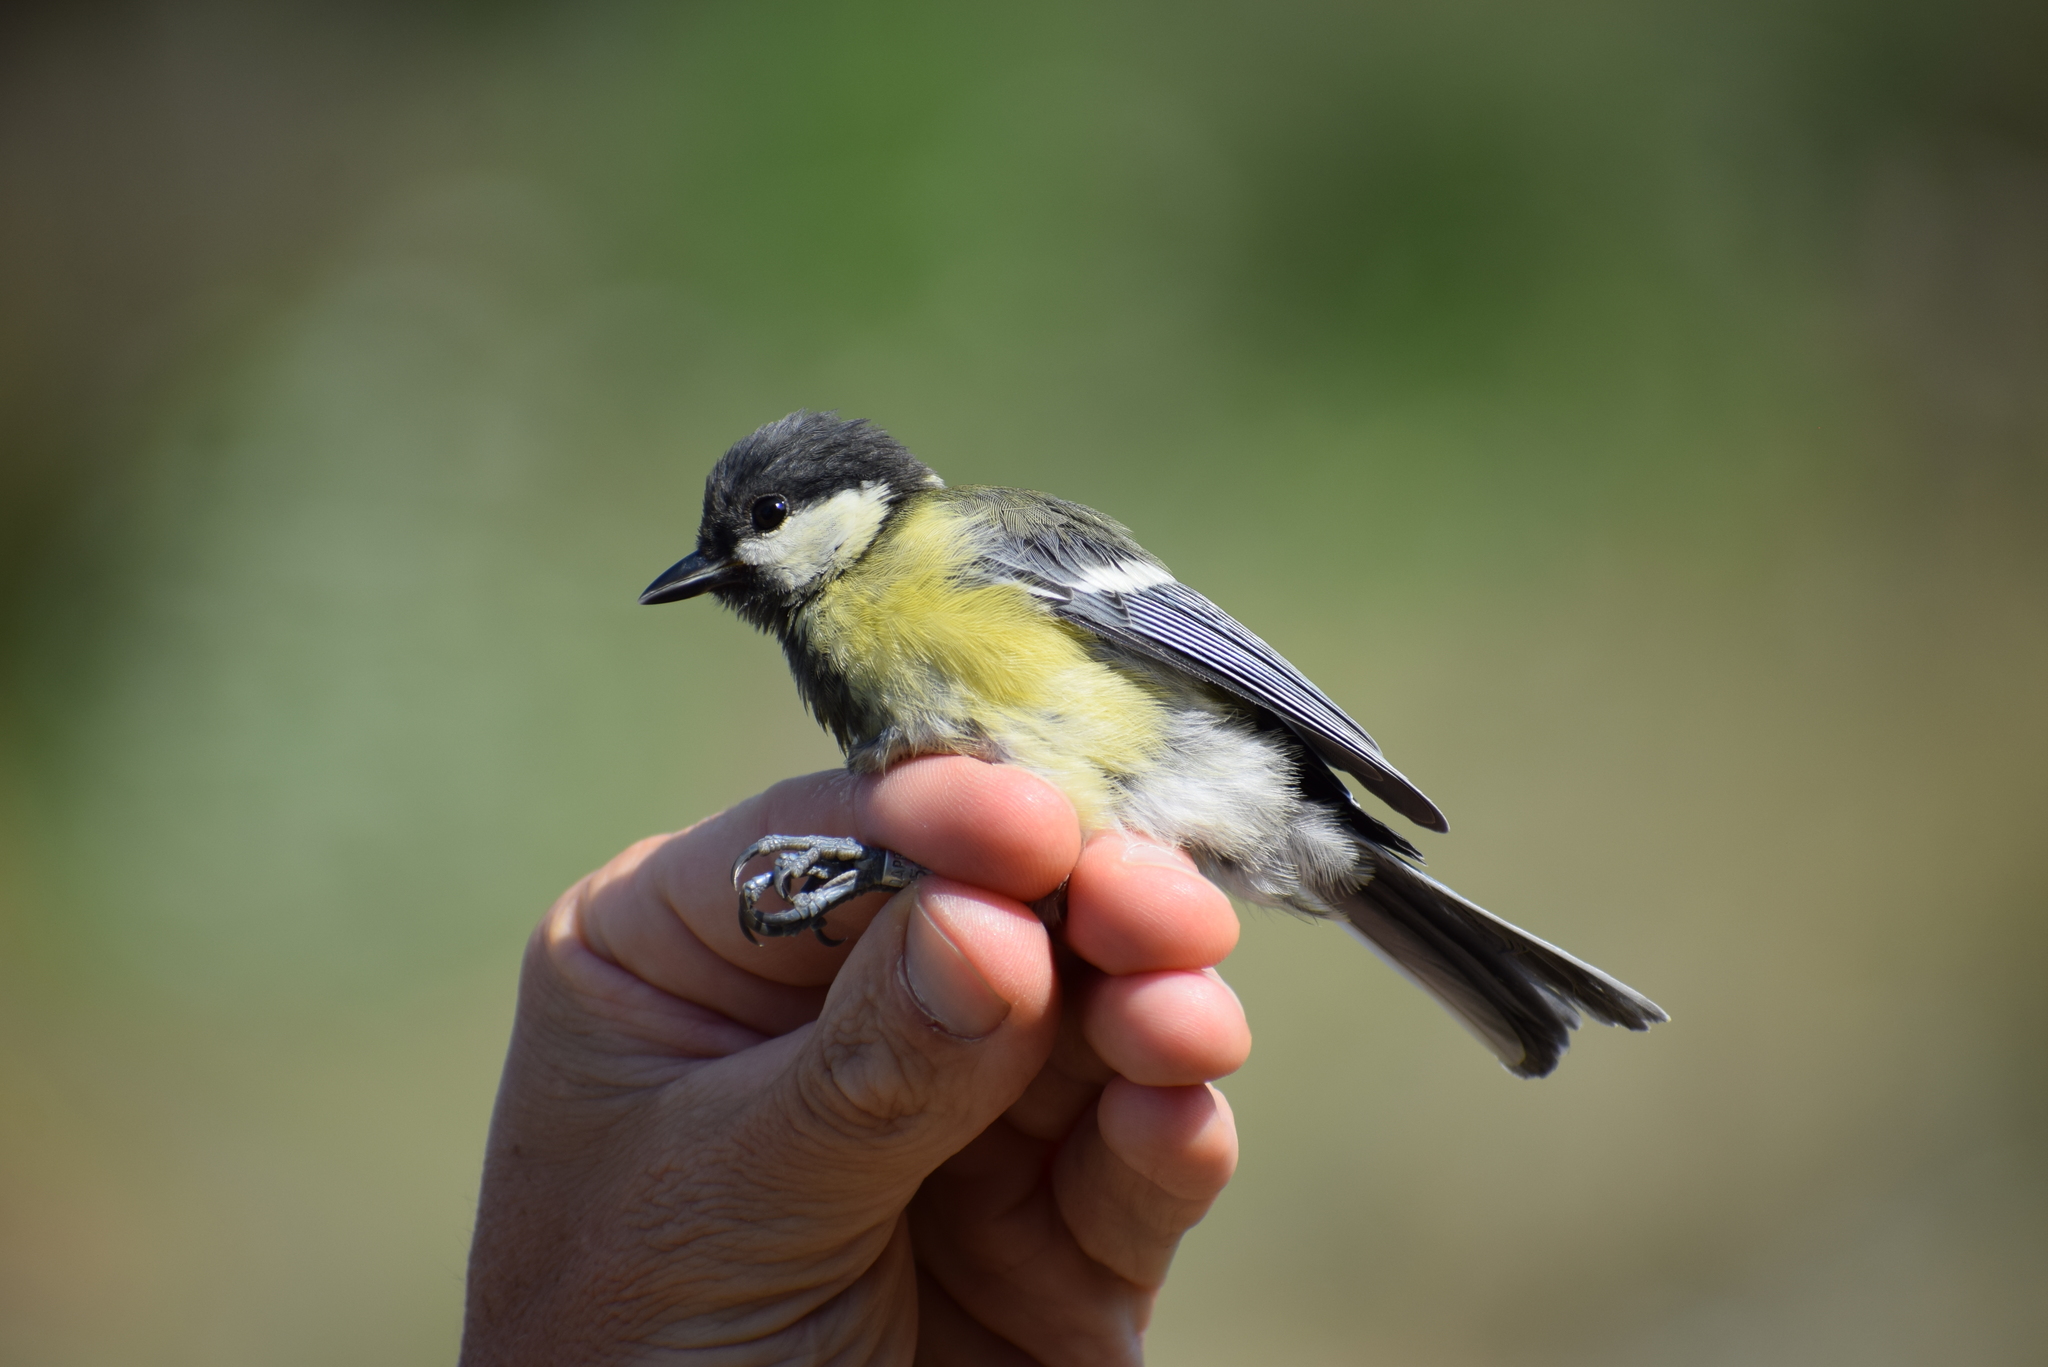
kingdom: Animalia
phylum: Chordata
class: Aves
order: Passeriformes
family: Paridae
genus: Parus
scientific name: Parus major
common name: Great tit
